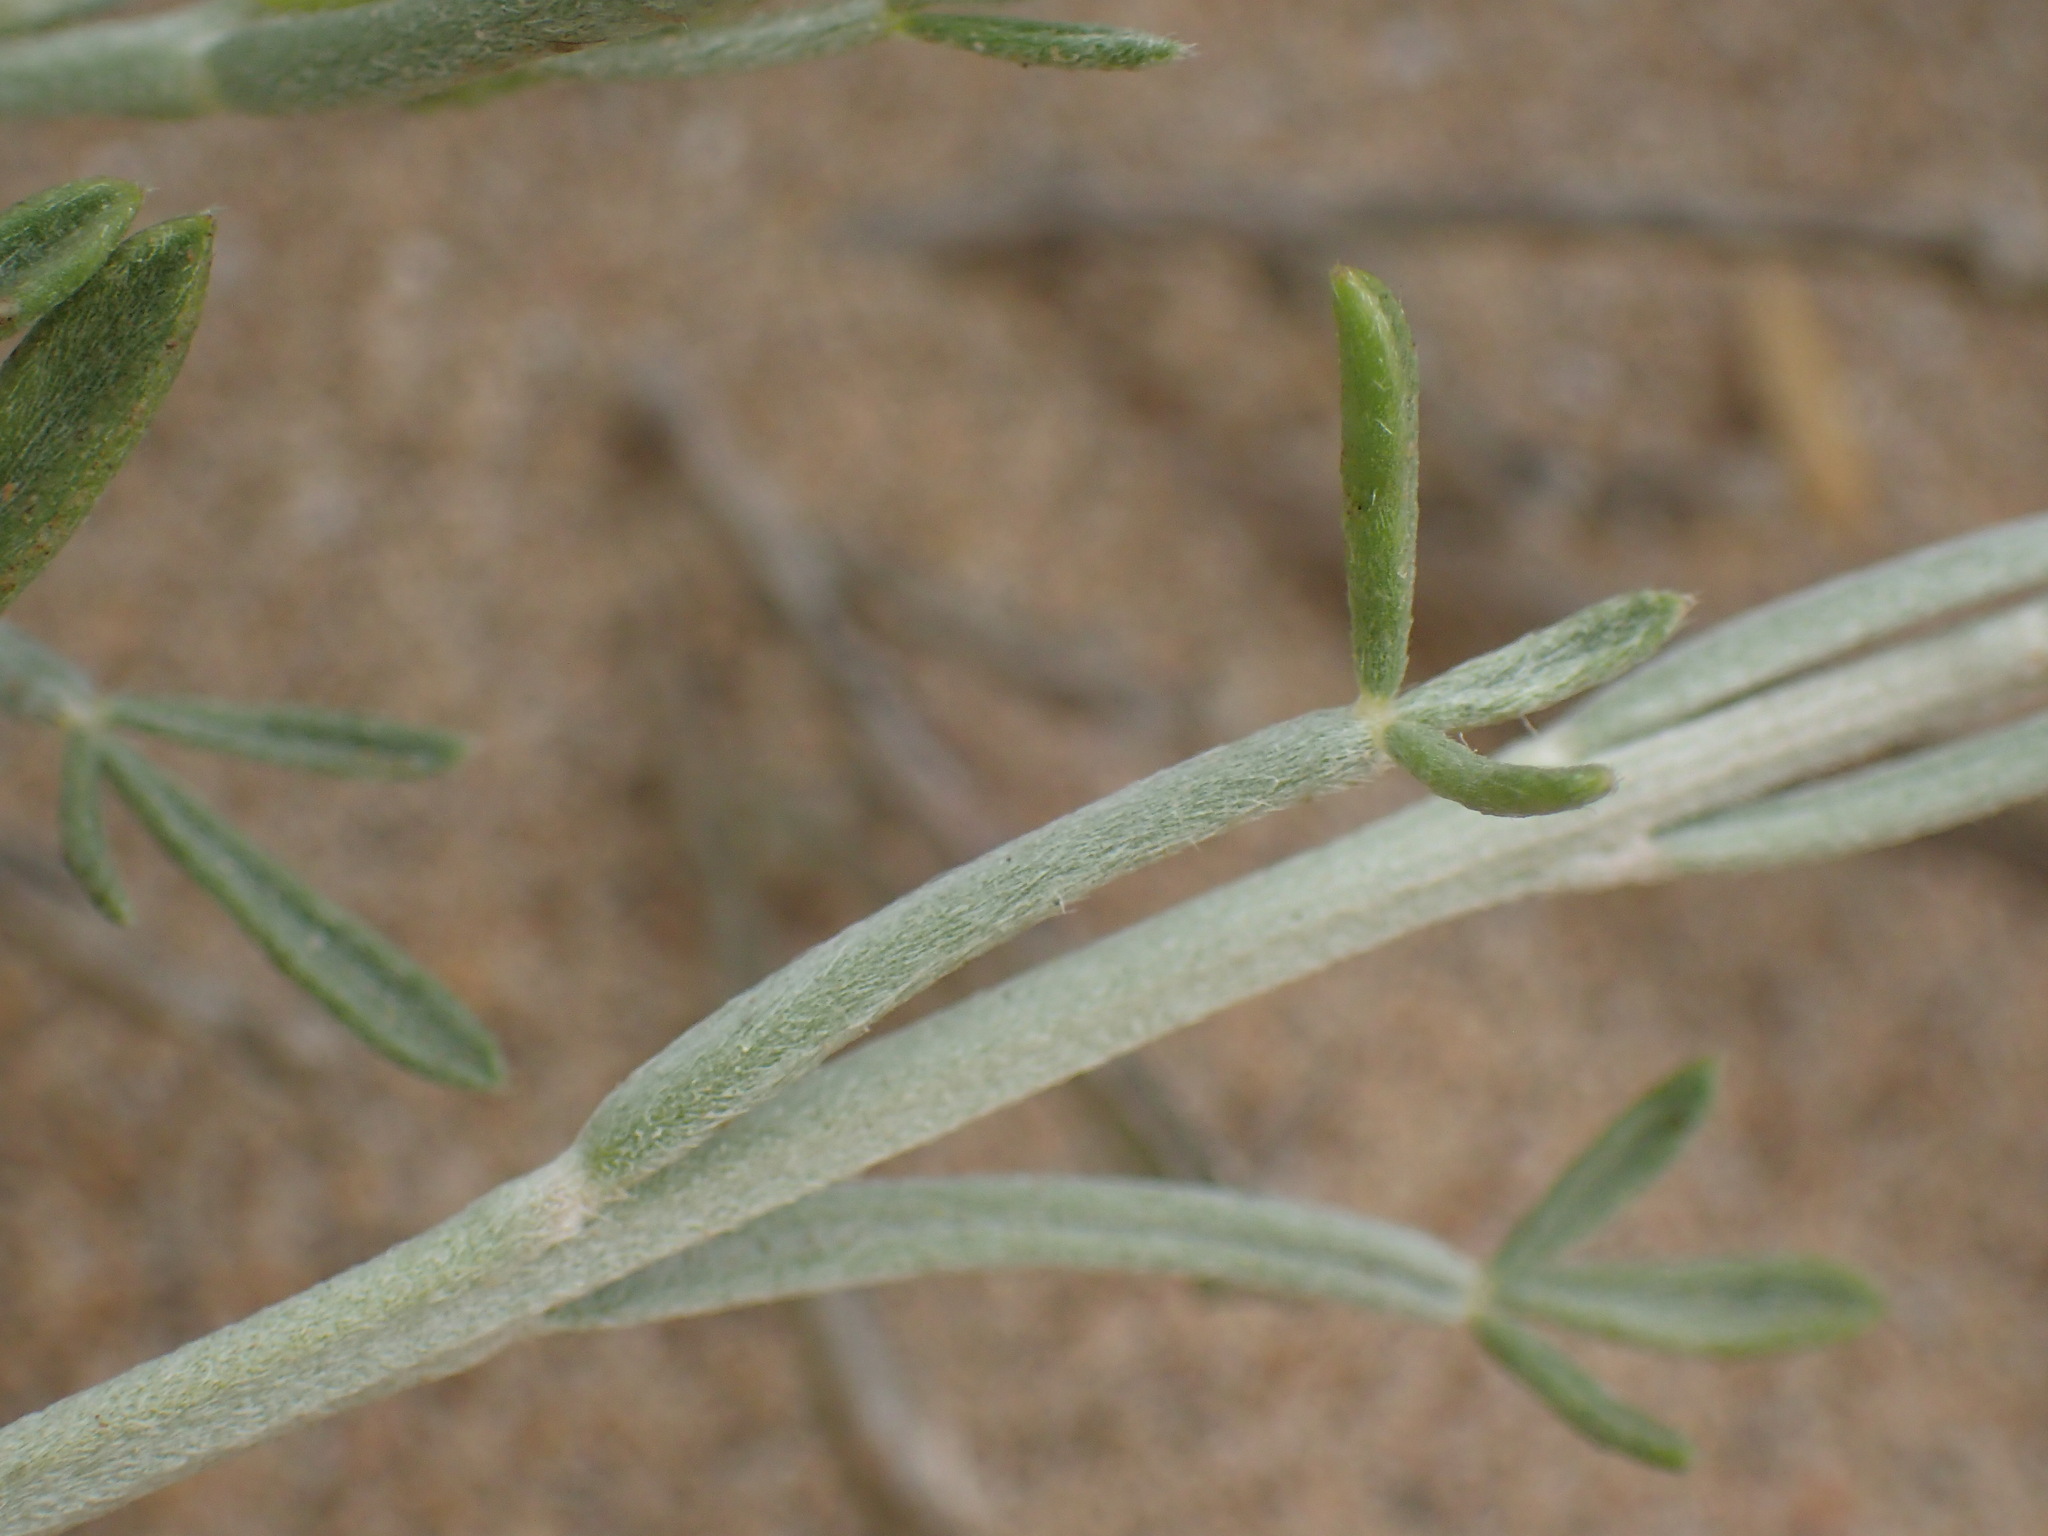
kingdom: Plantae
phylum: Tracheophyta
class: Magnoliopsida
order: Fabales
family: Fabaceae
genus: Calobota
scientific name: Calobota angustifolia
